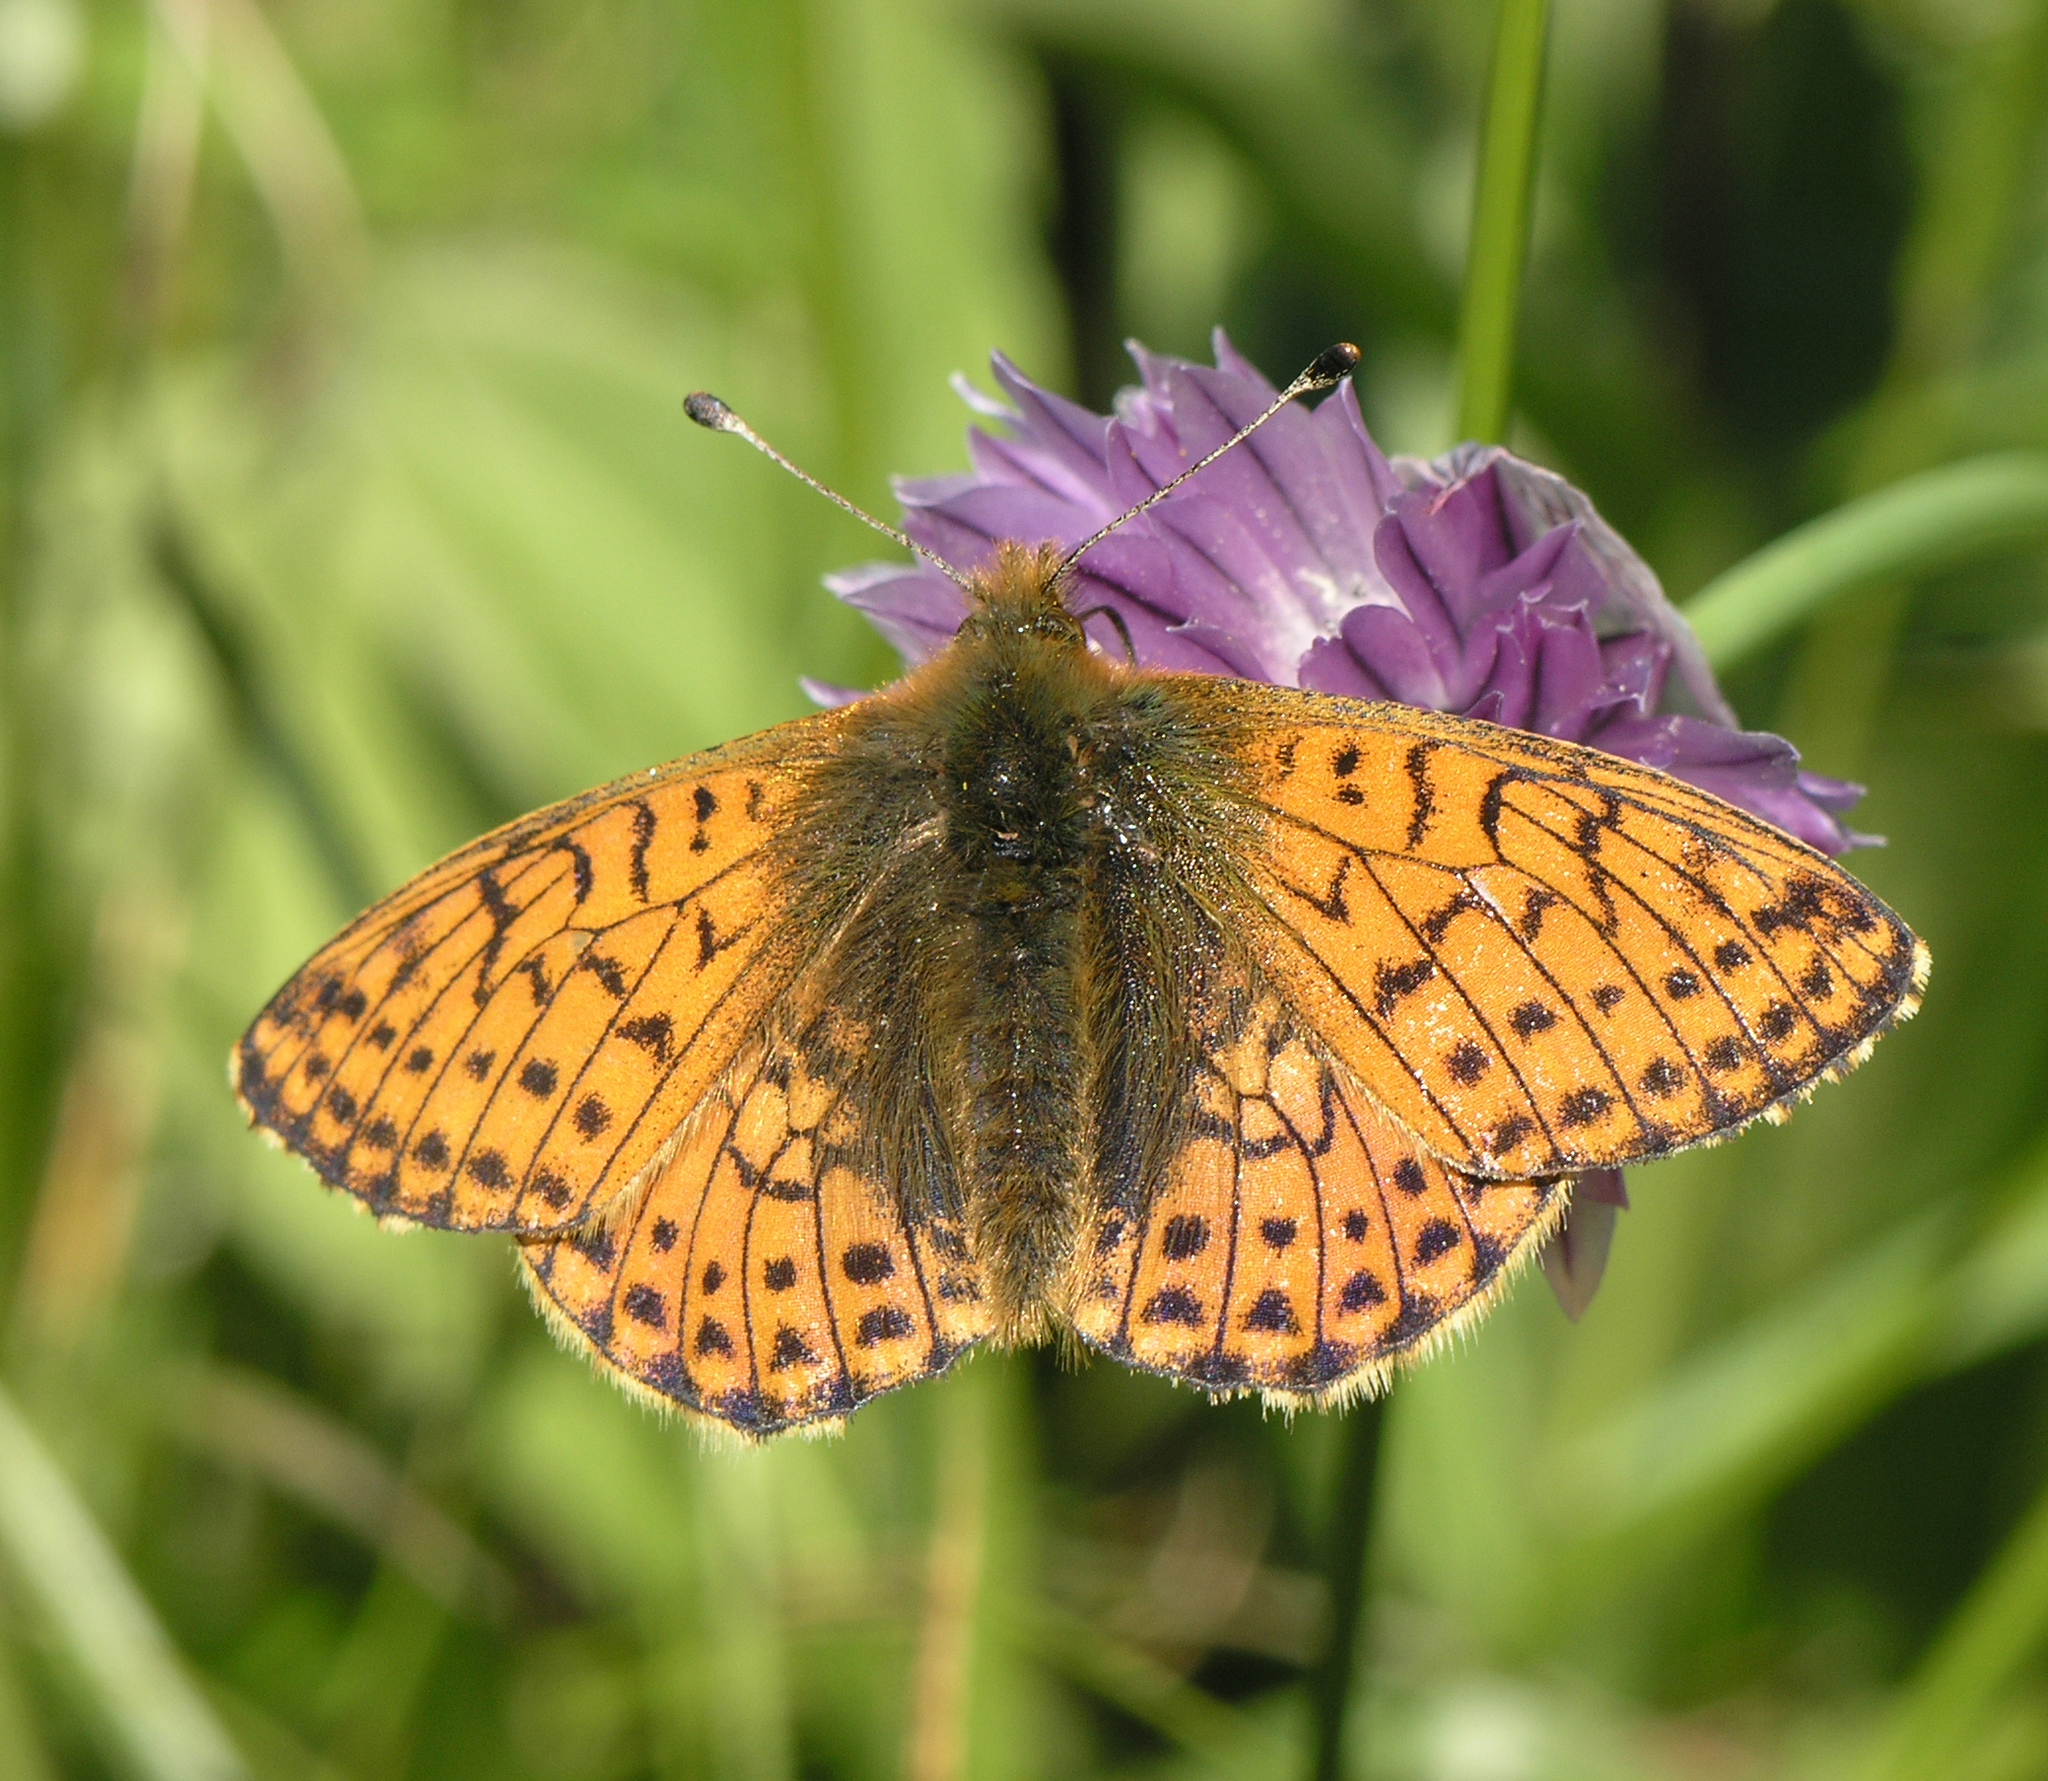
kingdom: Animalia
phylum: Arthropoda
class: Insecta
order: Lepidoptera
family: Nymphalidae
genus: Boloria
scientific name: Boloria
